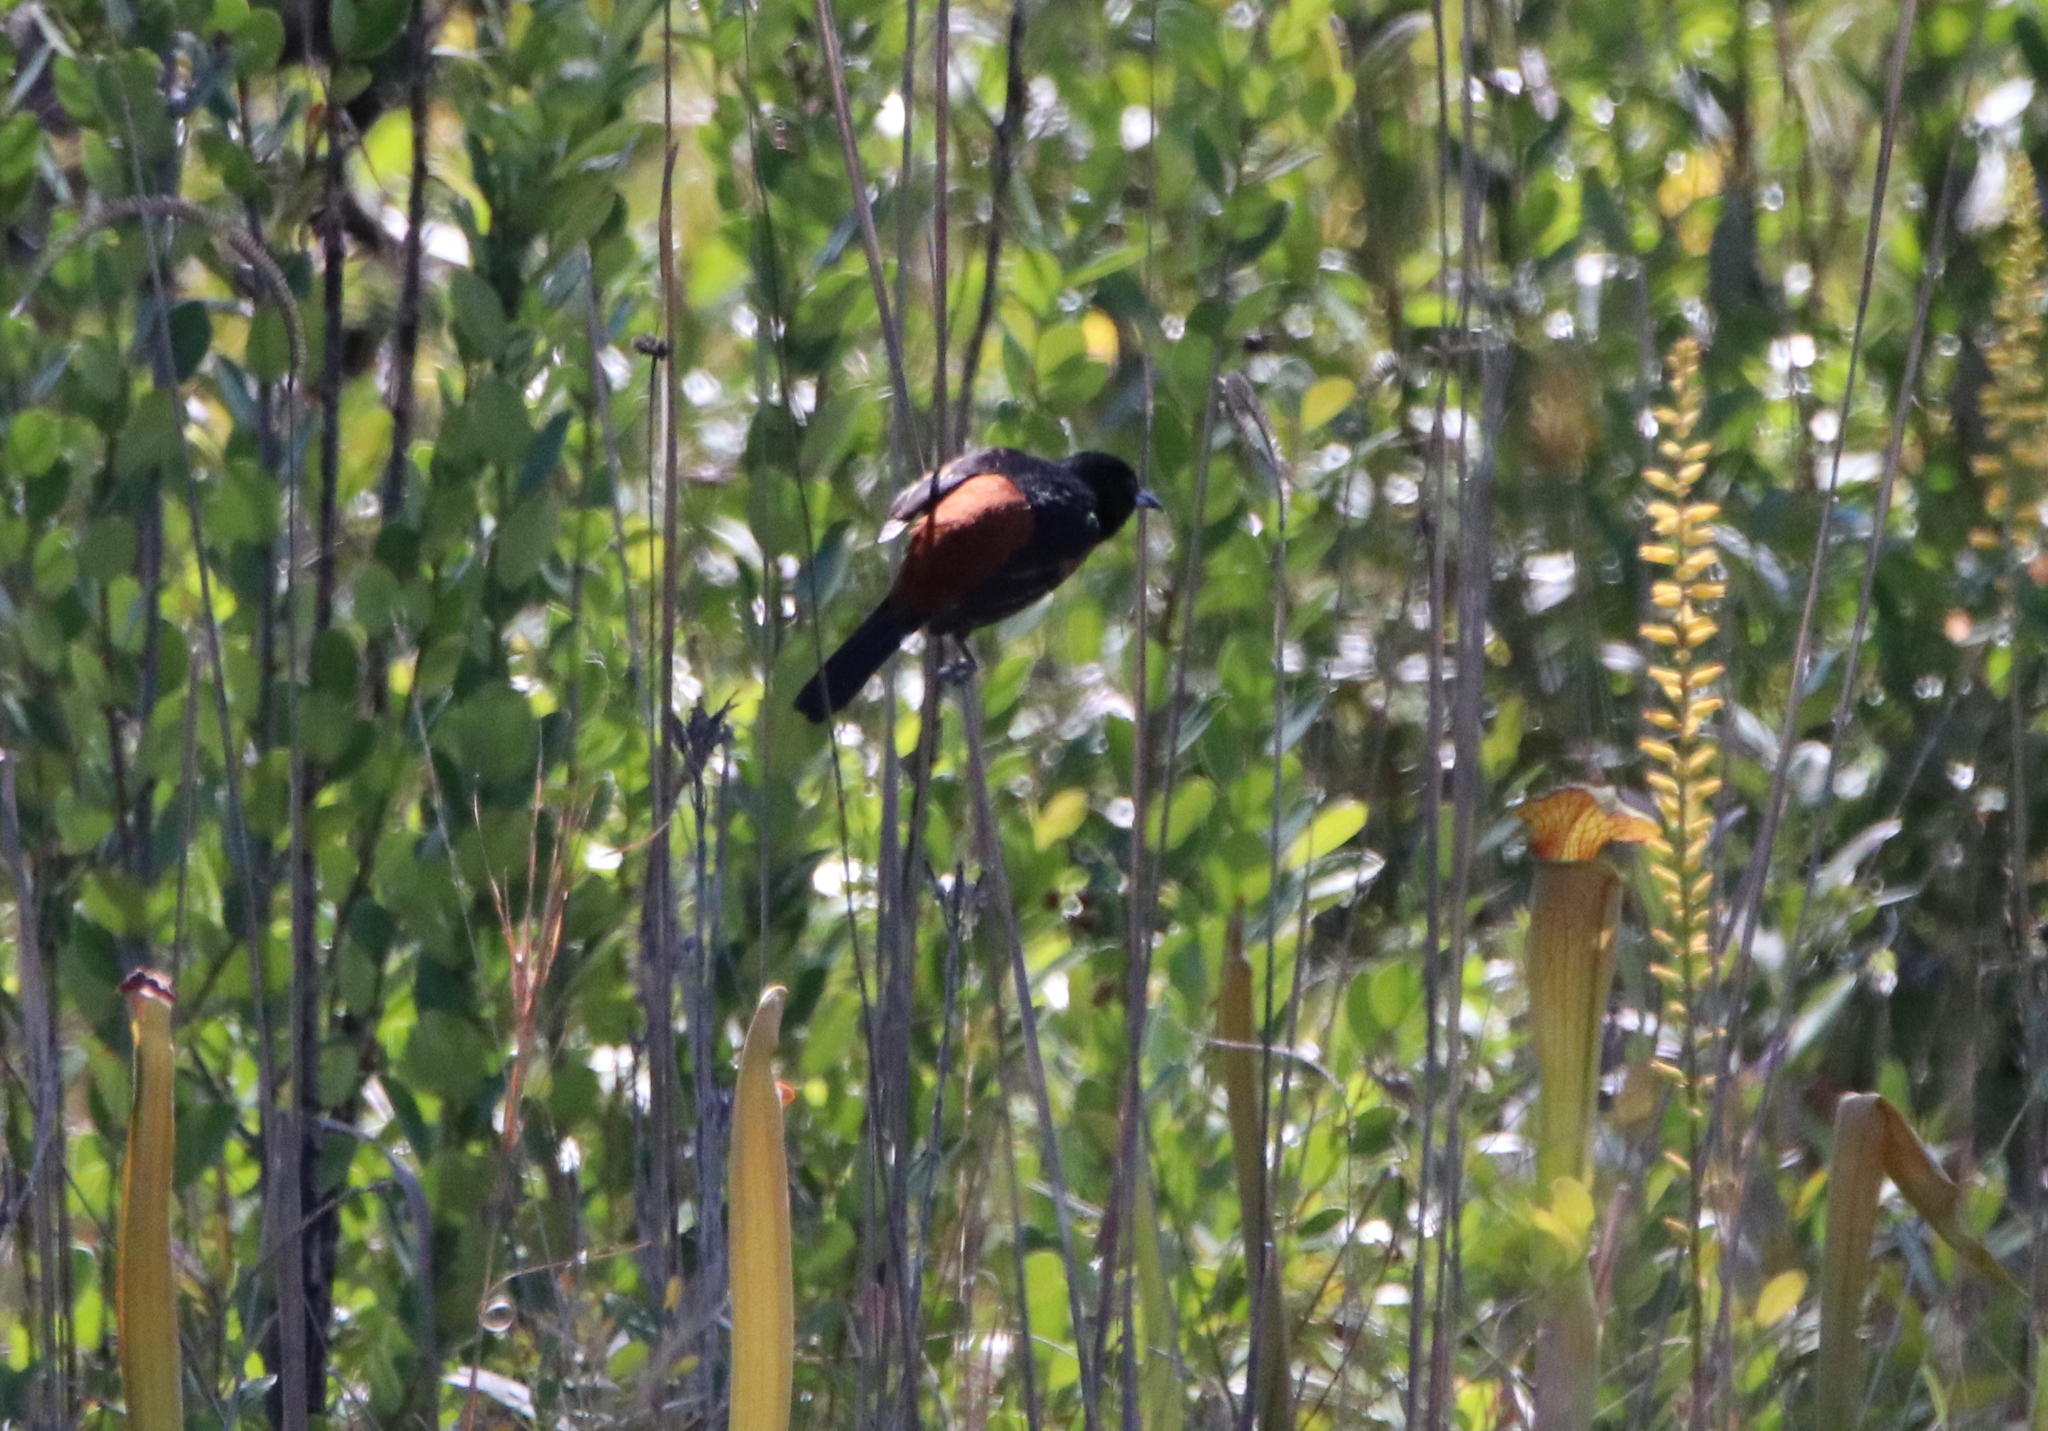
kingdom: Animalia
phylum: Chordata
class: Aves
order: Passeriformes
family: Icteridae
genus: Icterus
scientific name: Icterus spurius
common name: Orchard oriole
